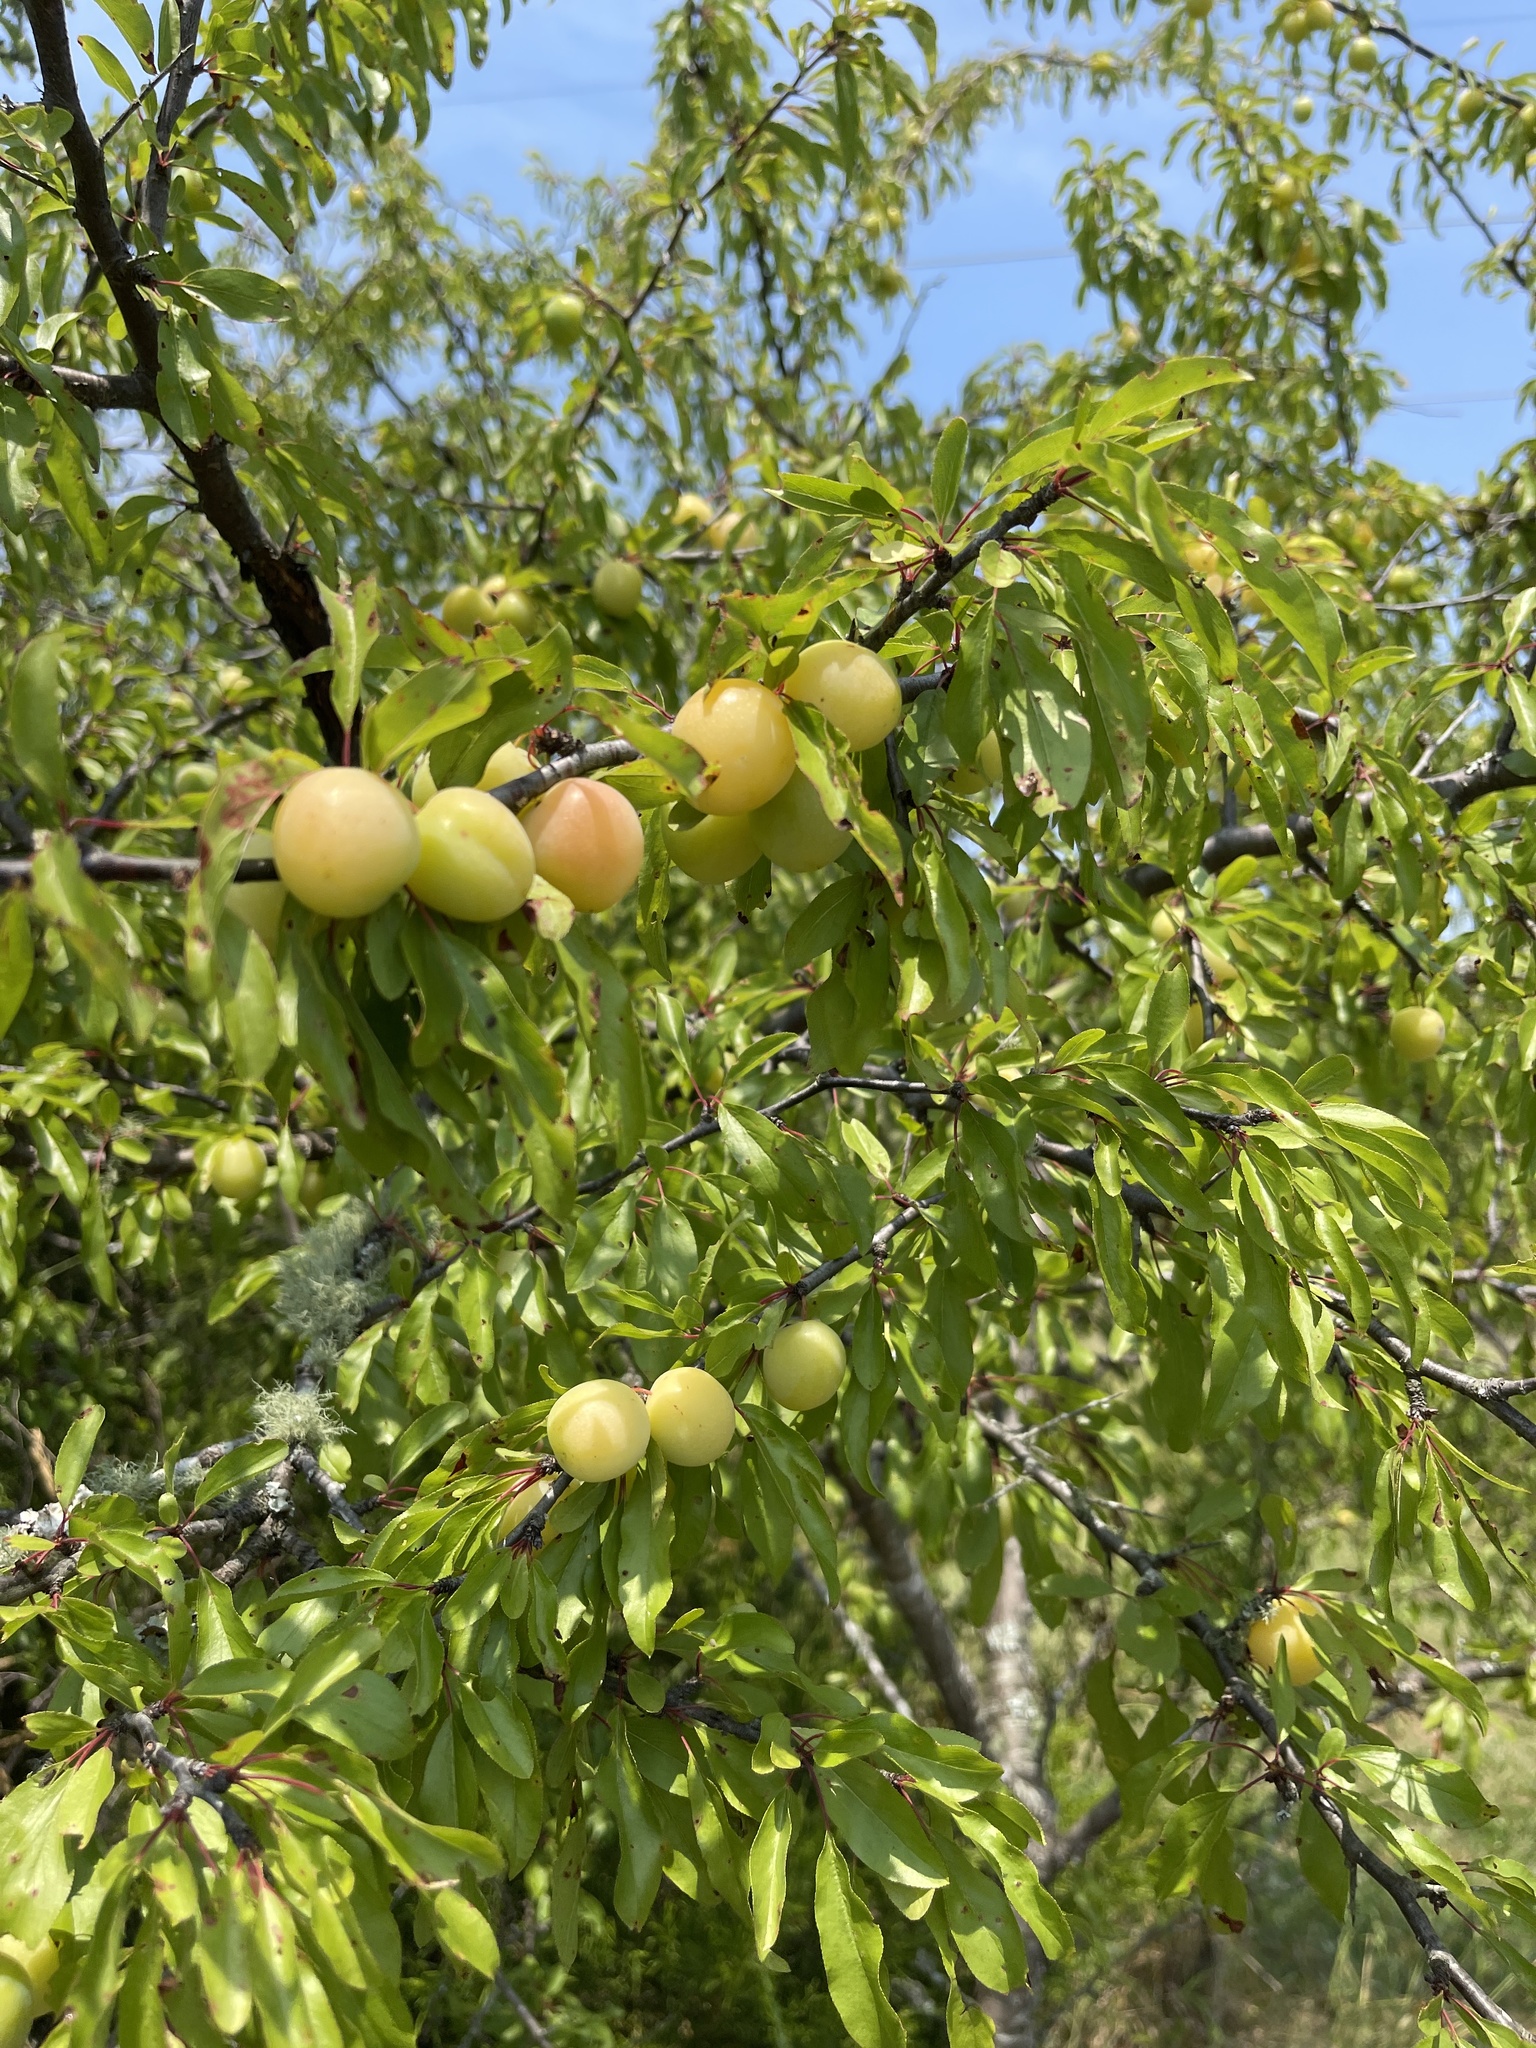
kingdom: Plantae
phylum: Tracheophyta
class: Magnoliopsida
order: Rosales
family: Rosaceae
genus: Prunus
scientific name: Prunus angustifolia
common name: Cherokee plum
